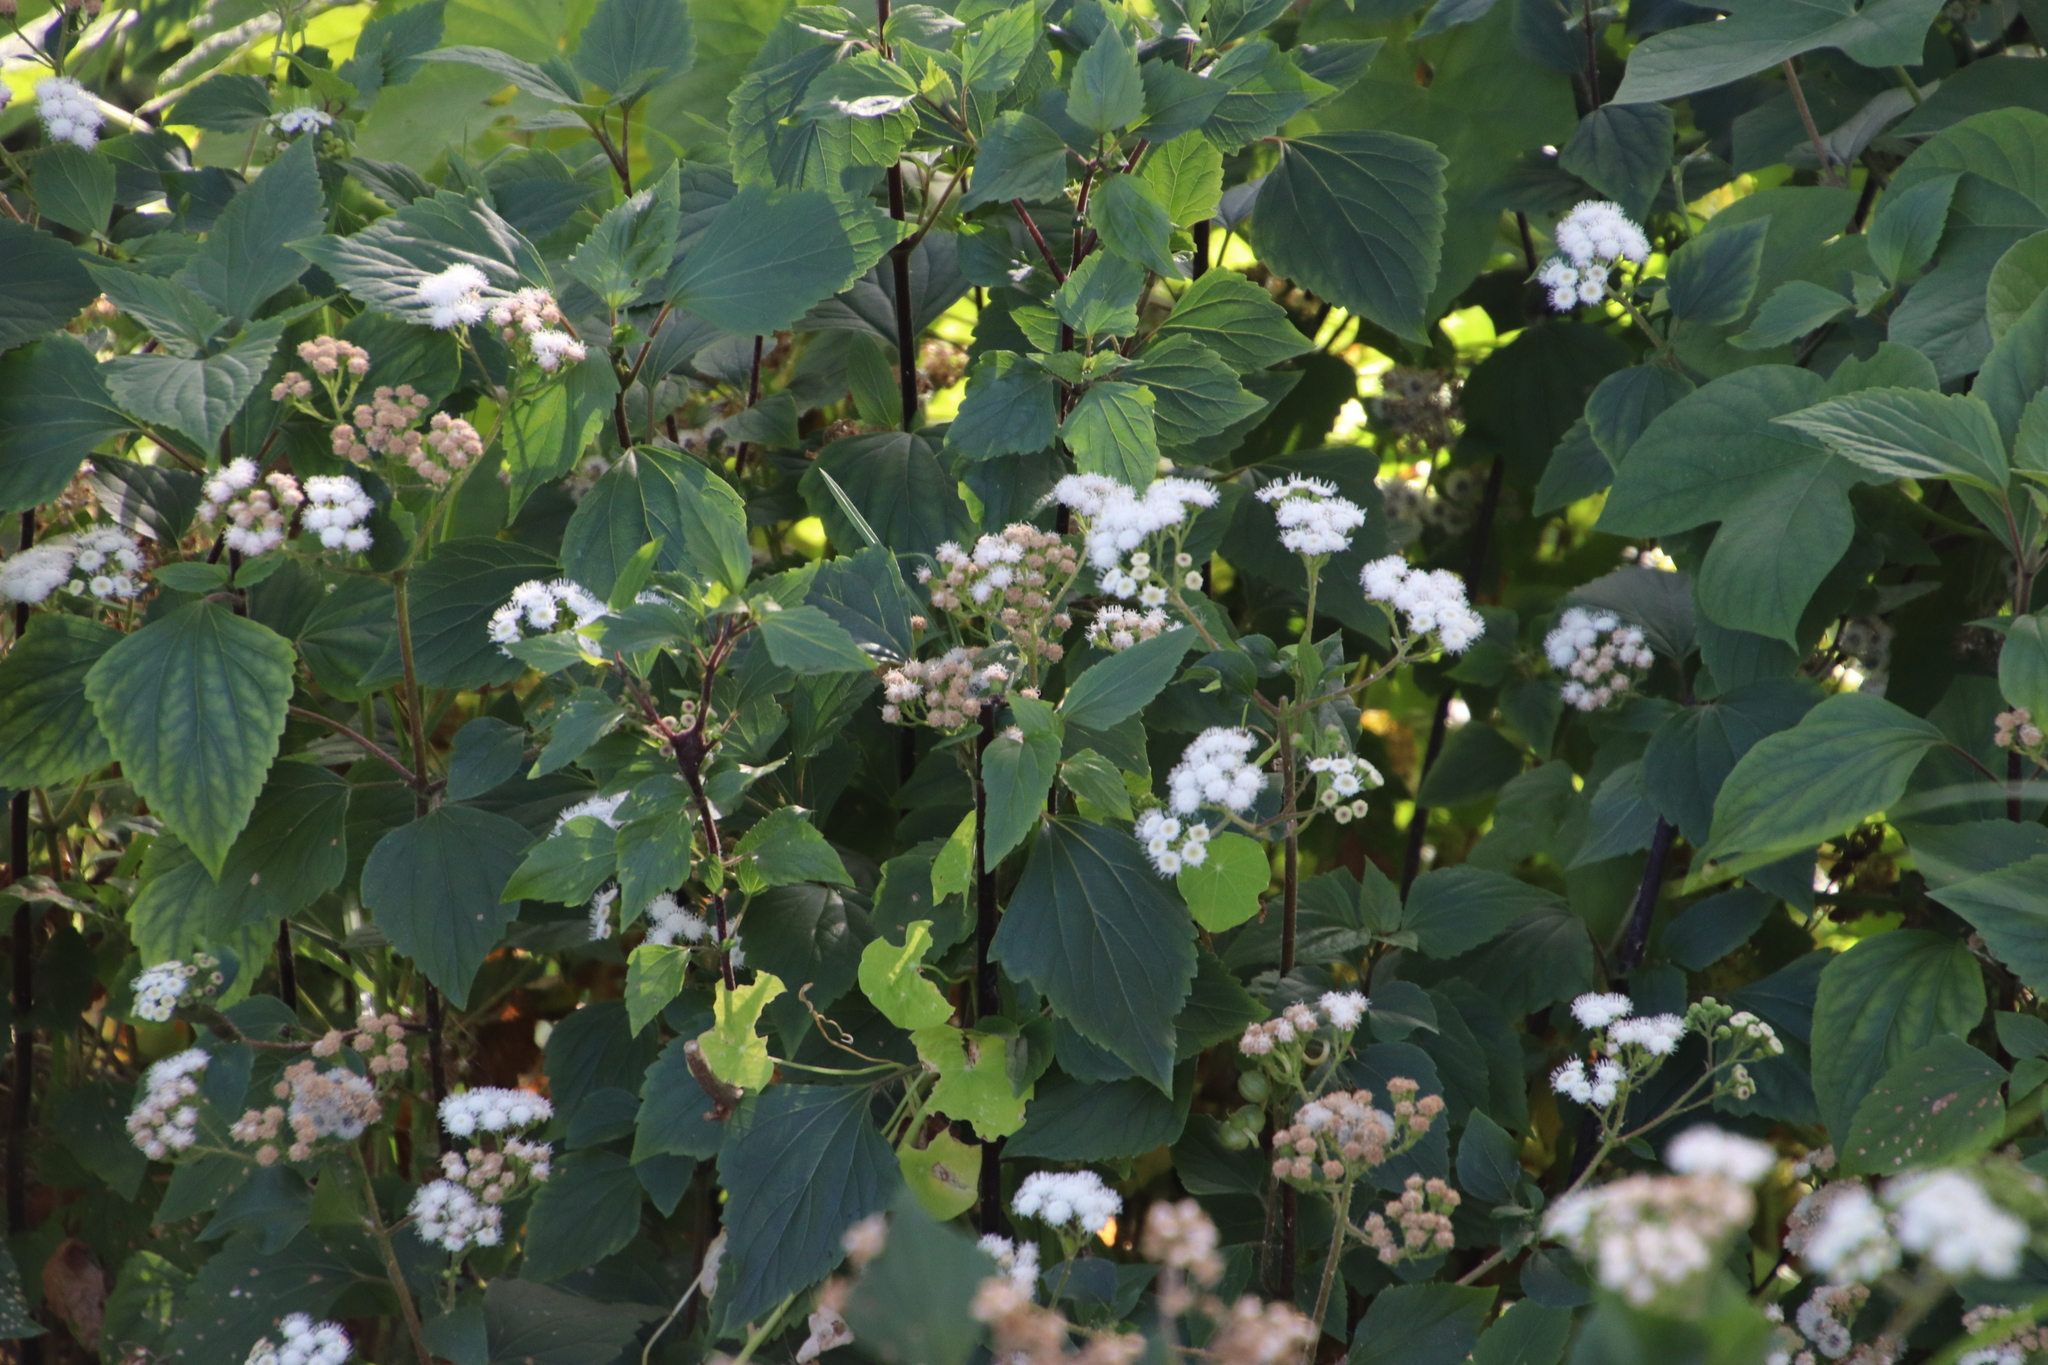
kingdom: Plantae
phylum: Tracheophyta
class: Magnoliopsida
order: Asterales
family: Asteraceae
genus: Ageratina
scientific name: Ageratina adenophora
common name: Sticky snakeroot
